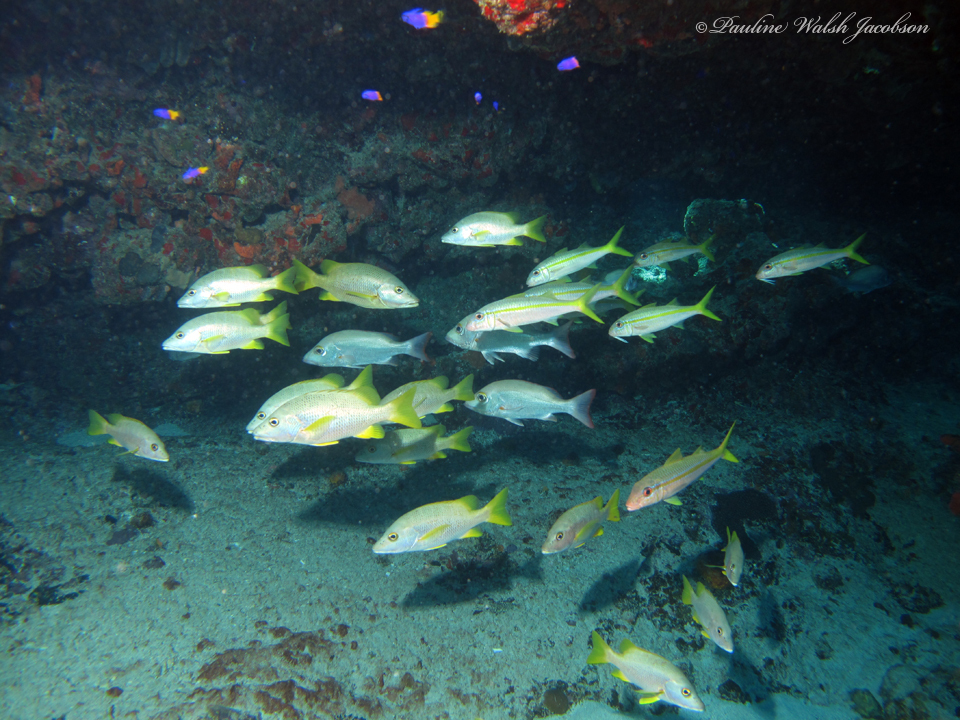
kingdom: Animalia
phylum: Chordata
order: Perciformes
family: Lutjanidae
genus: Lutjanus
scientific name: Lutjanus mahogoni
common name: Spot snapper
